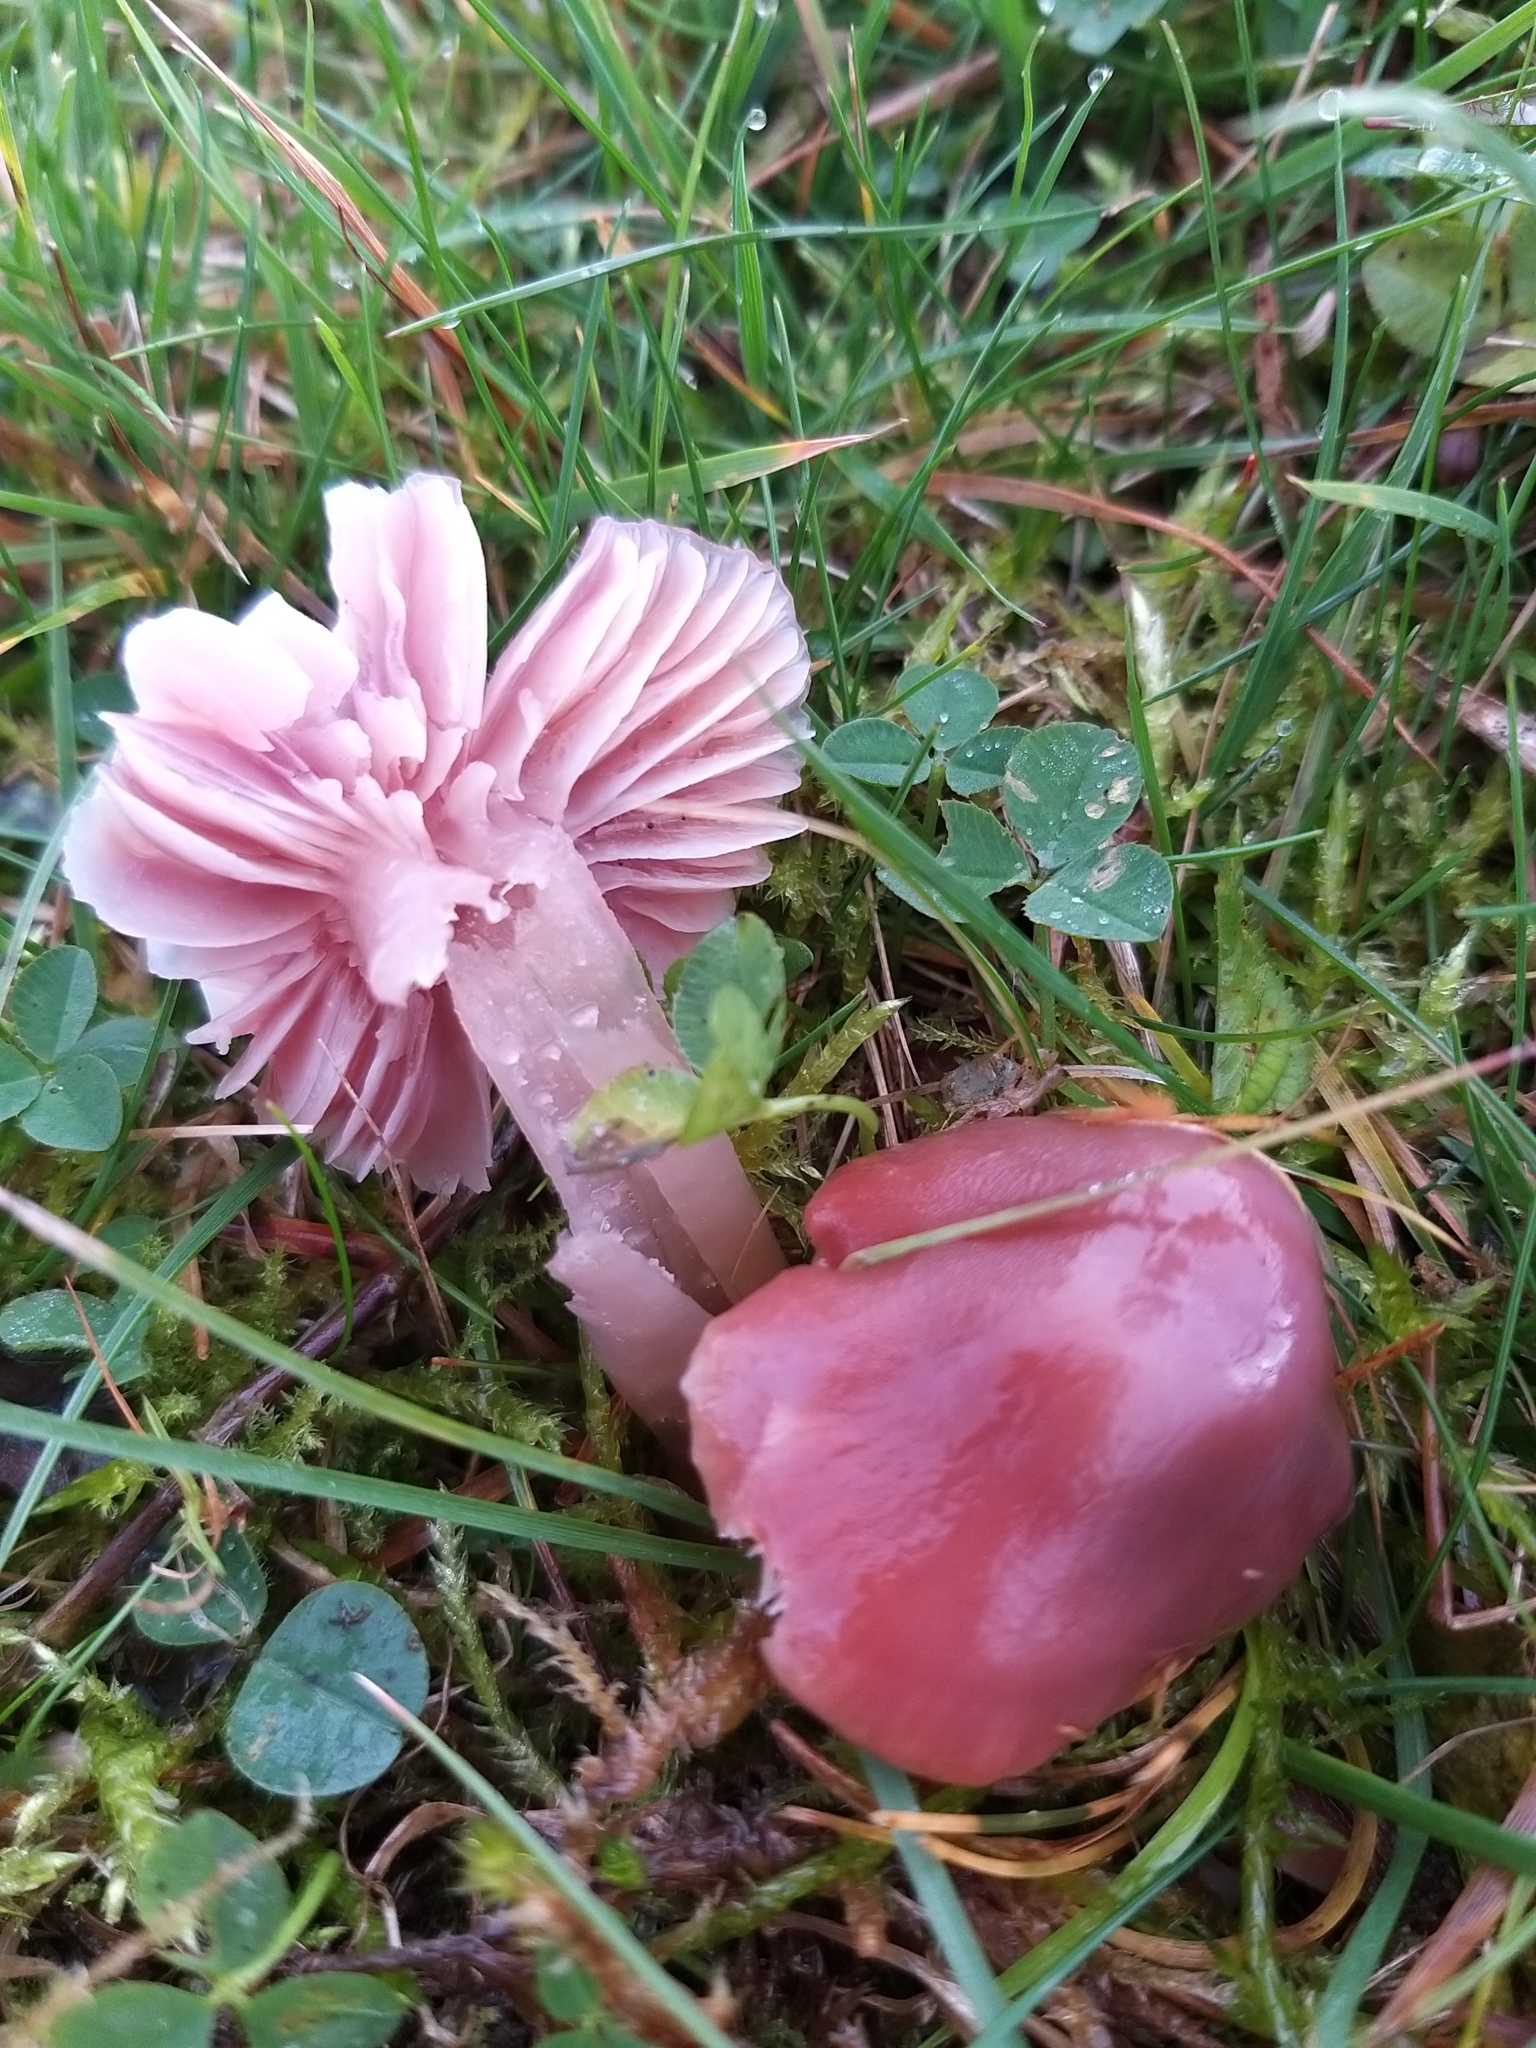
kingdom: Fungi
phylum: Basidiomycota
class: Agaricomycetes
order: Agaricales
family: Hygrophoraceae
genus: Gliophorus
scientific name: Gliophorus reginae
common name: Jubilee waxcap
